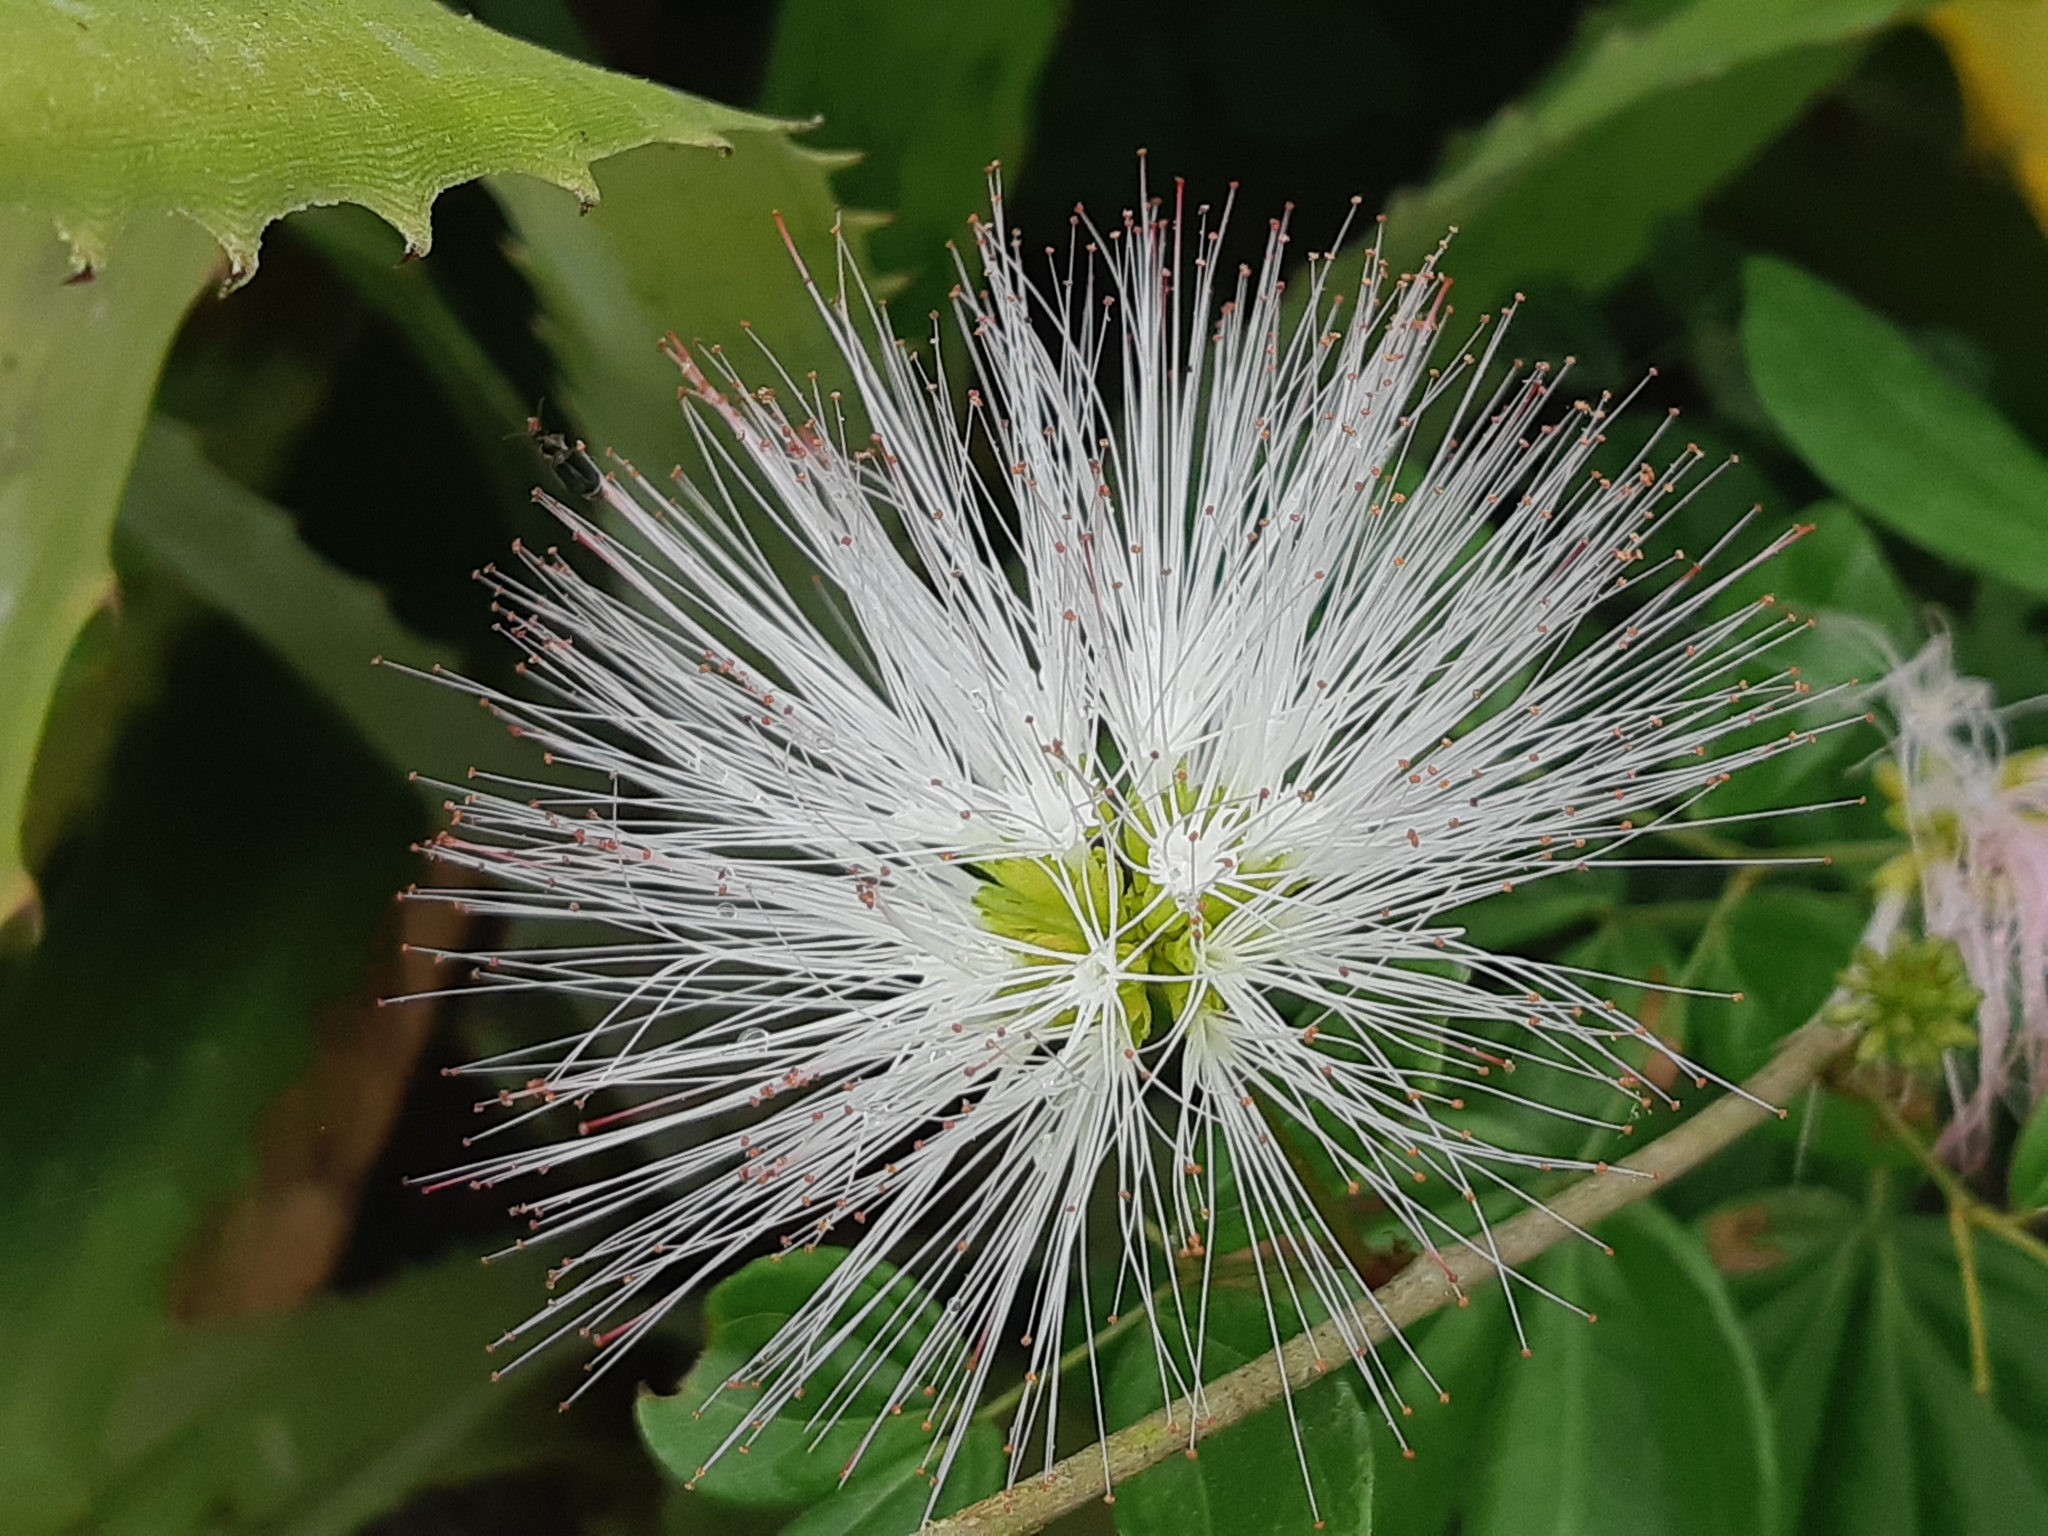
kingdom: Plantae
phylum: Tracheophyta
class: Magnoliopsida
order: Fabales
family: Fabaceae
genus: Calliandra
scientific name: Calliandra angustifolia
